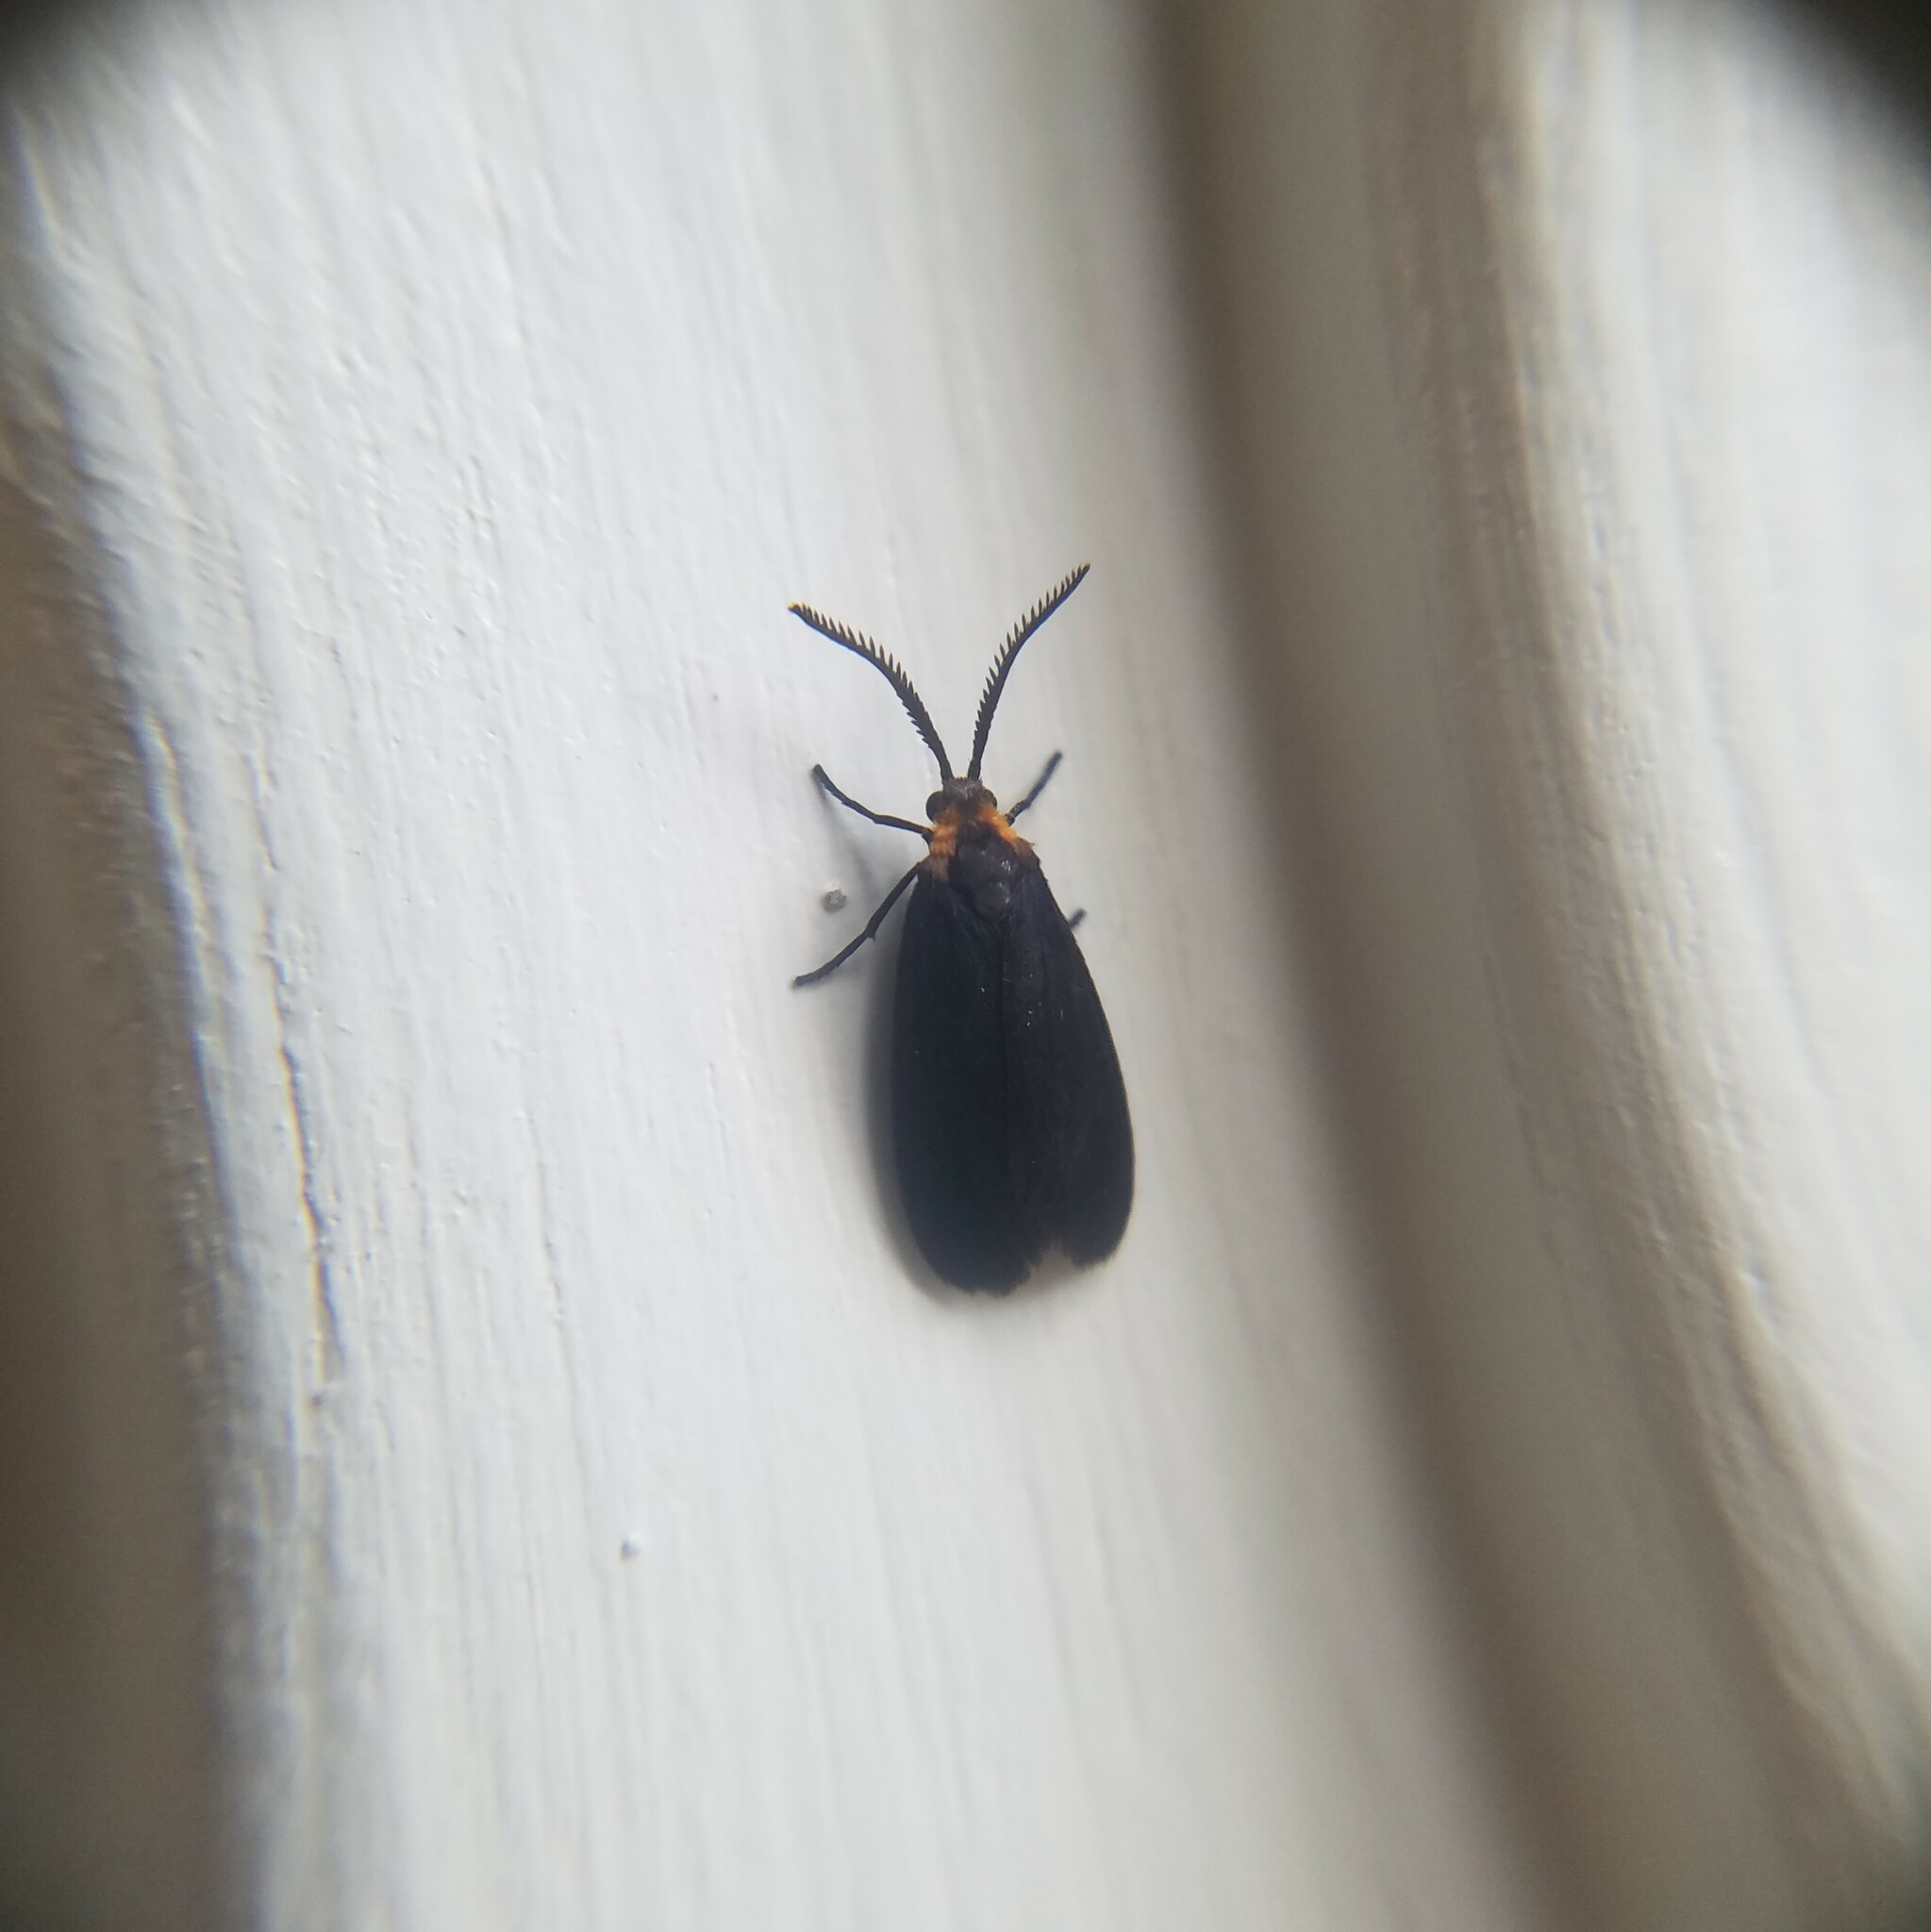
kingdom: Animalia
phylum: Arthropoda
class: Insecta
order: Lepidoptera
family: Zygaenidae
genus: Acoloithus
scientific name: Acoloithus falsarius
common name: Clemens' false skeletonizer
